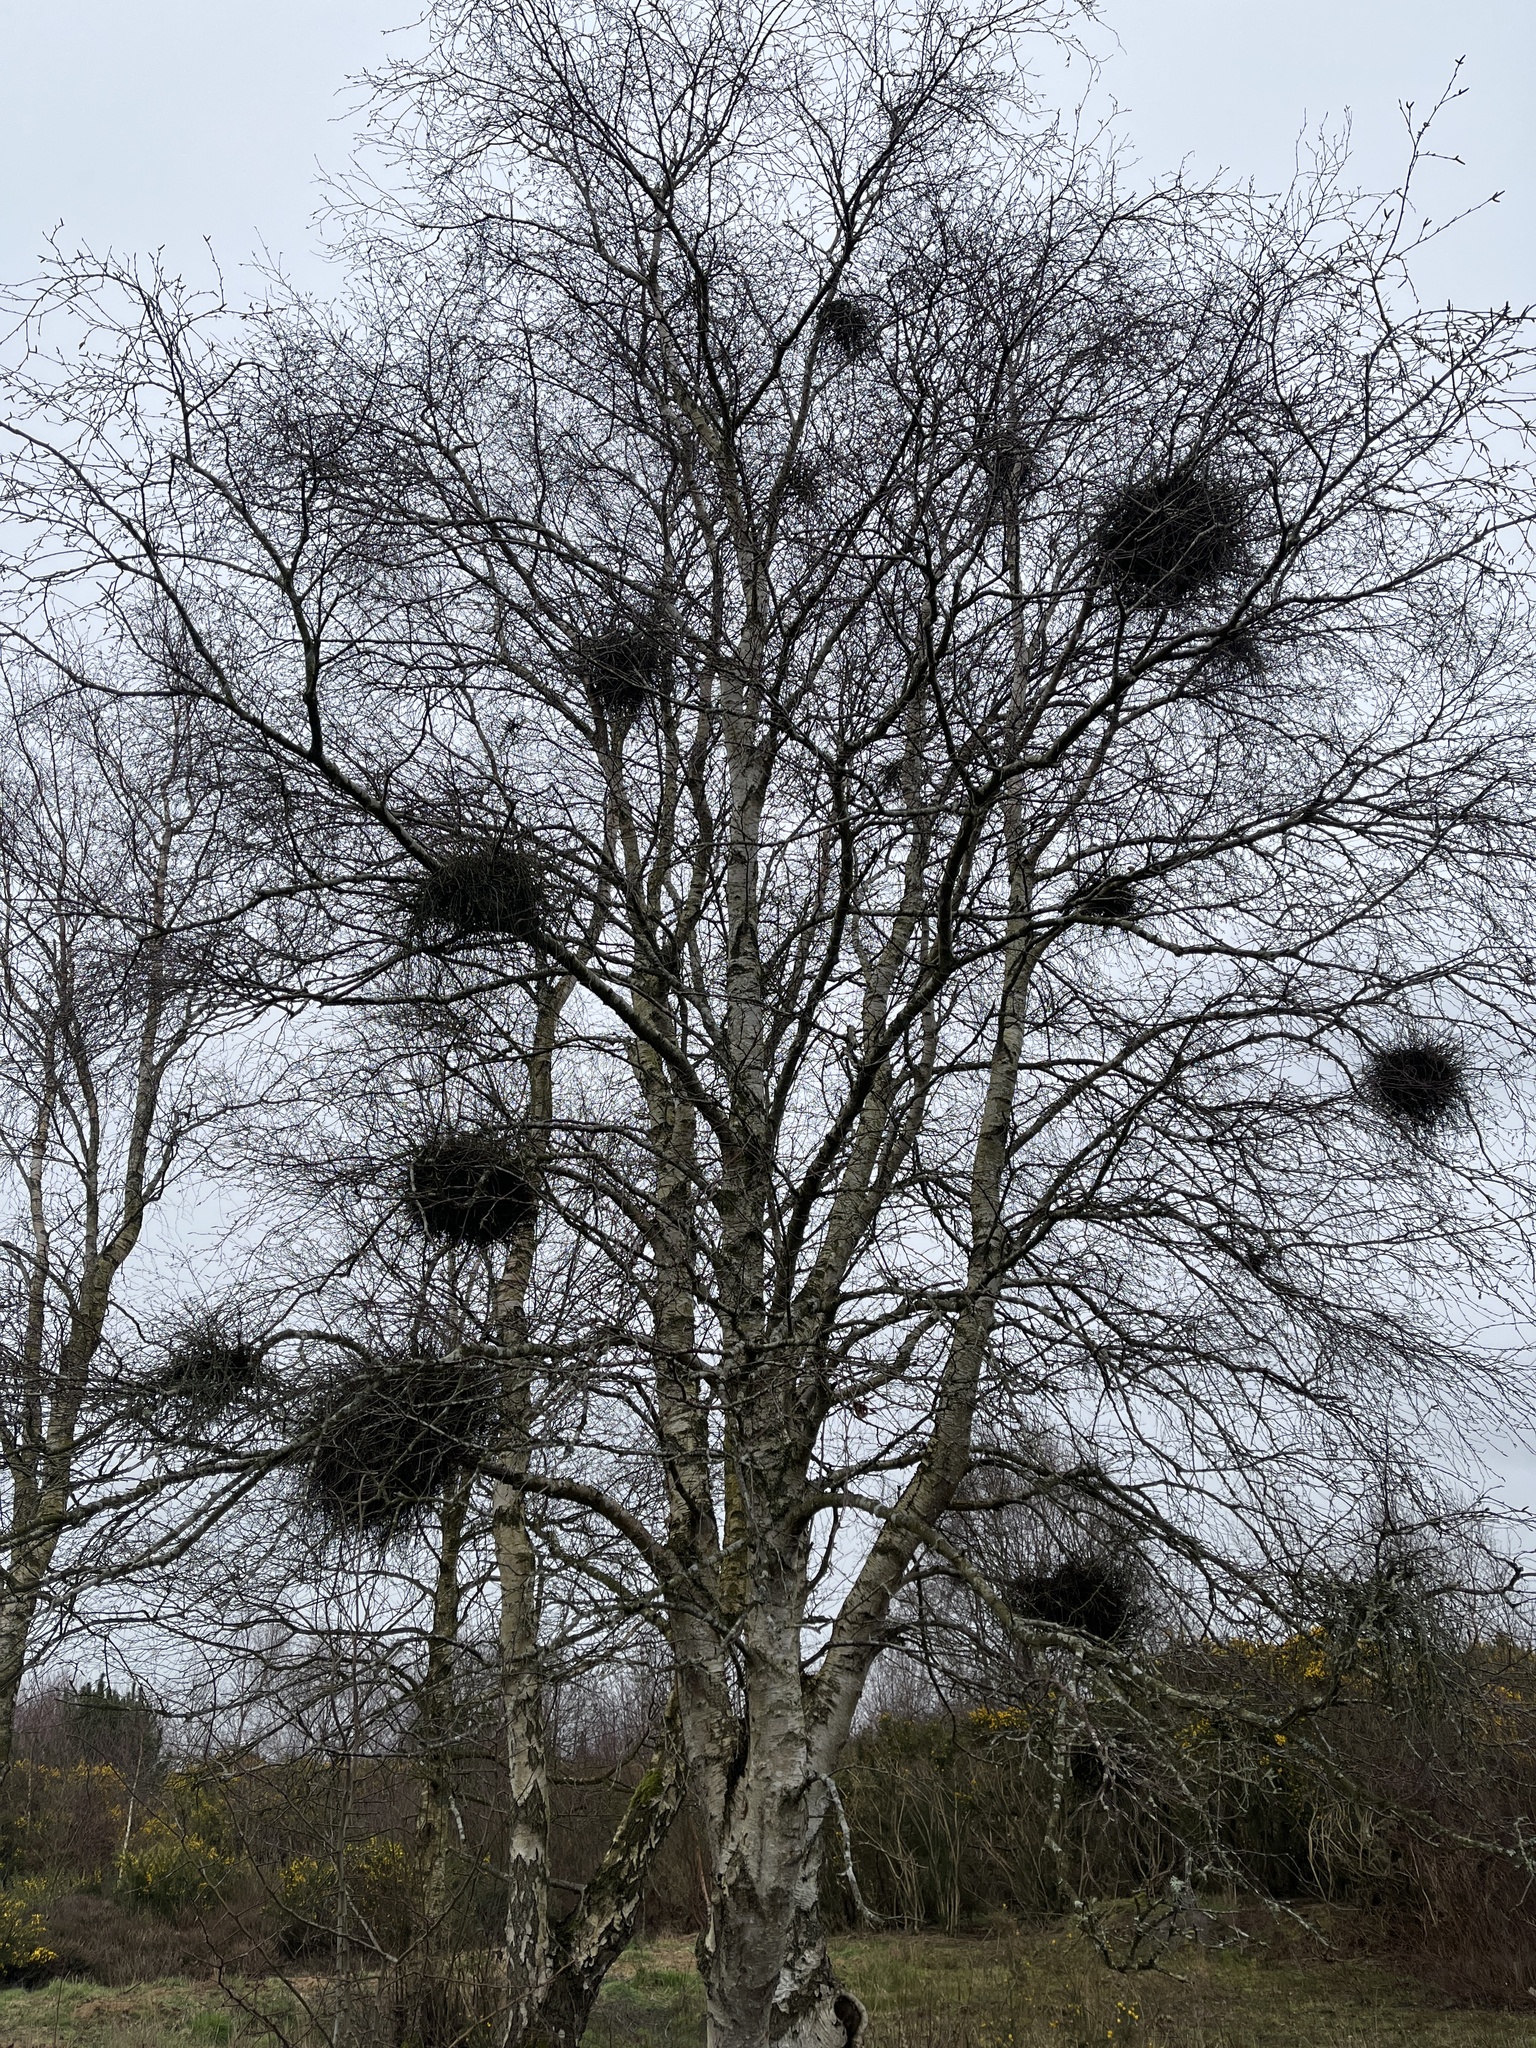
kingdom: Fungi
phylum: Ascomycota
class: Taphrinomycetes
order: Taphrinales
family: Taphrinaceae
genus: Taphrina
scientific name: Taphrina betulina
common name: Birch besom
